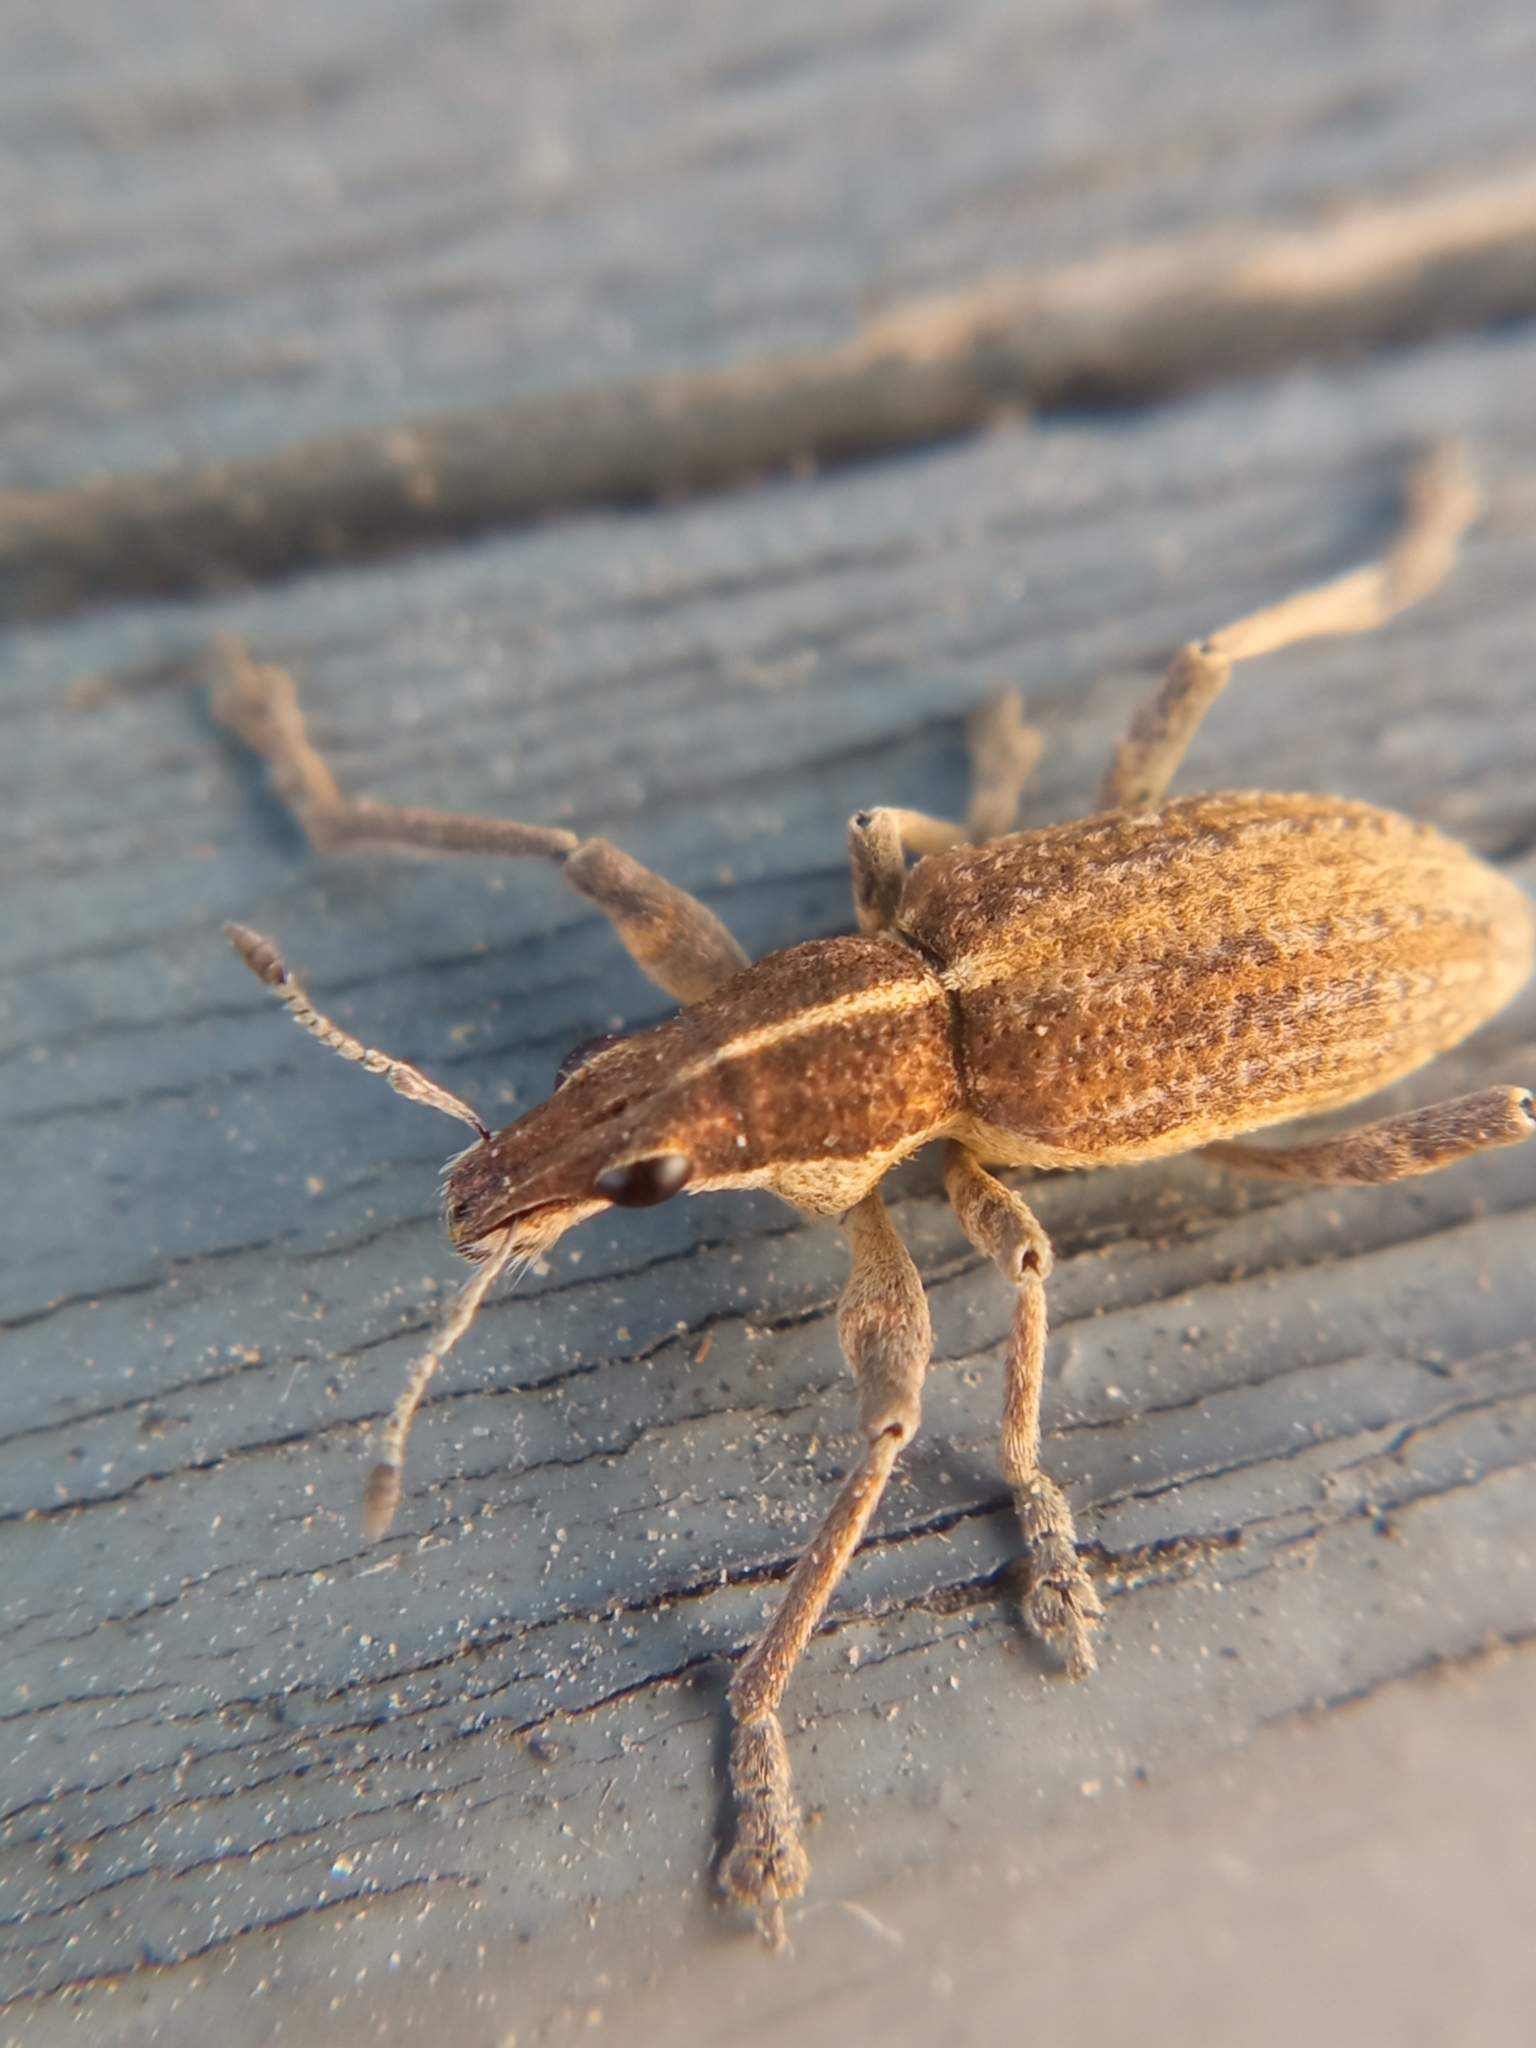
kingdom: Animalia
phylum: Arthropoda
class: Insecta
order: Coleoptera
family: Curculionidae
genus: Charagmus
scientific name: Charagmus gressorius
